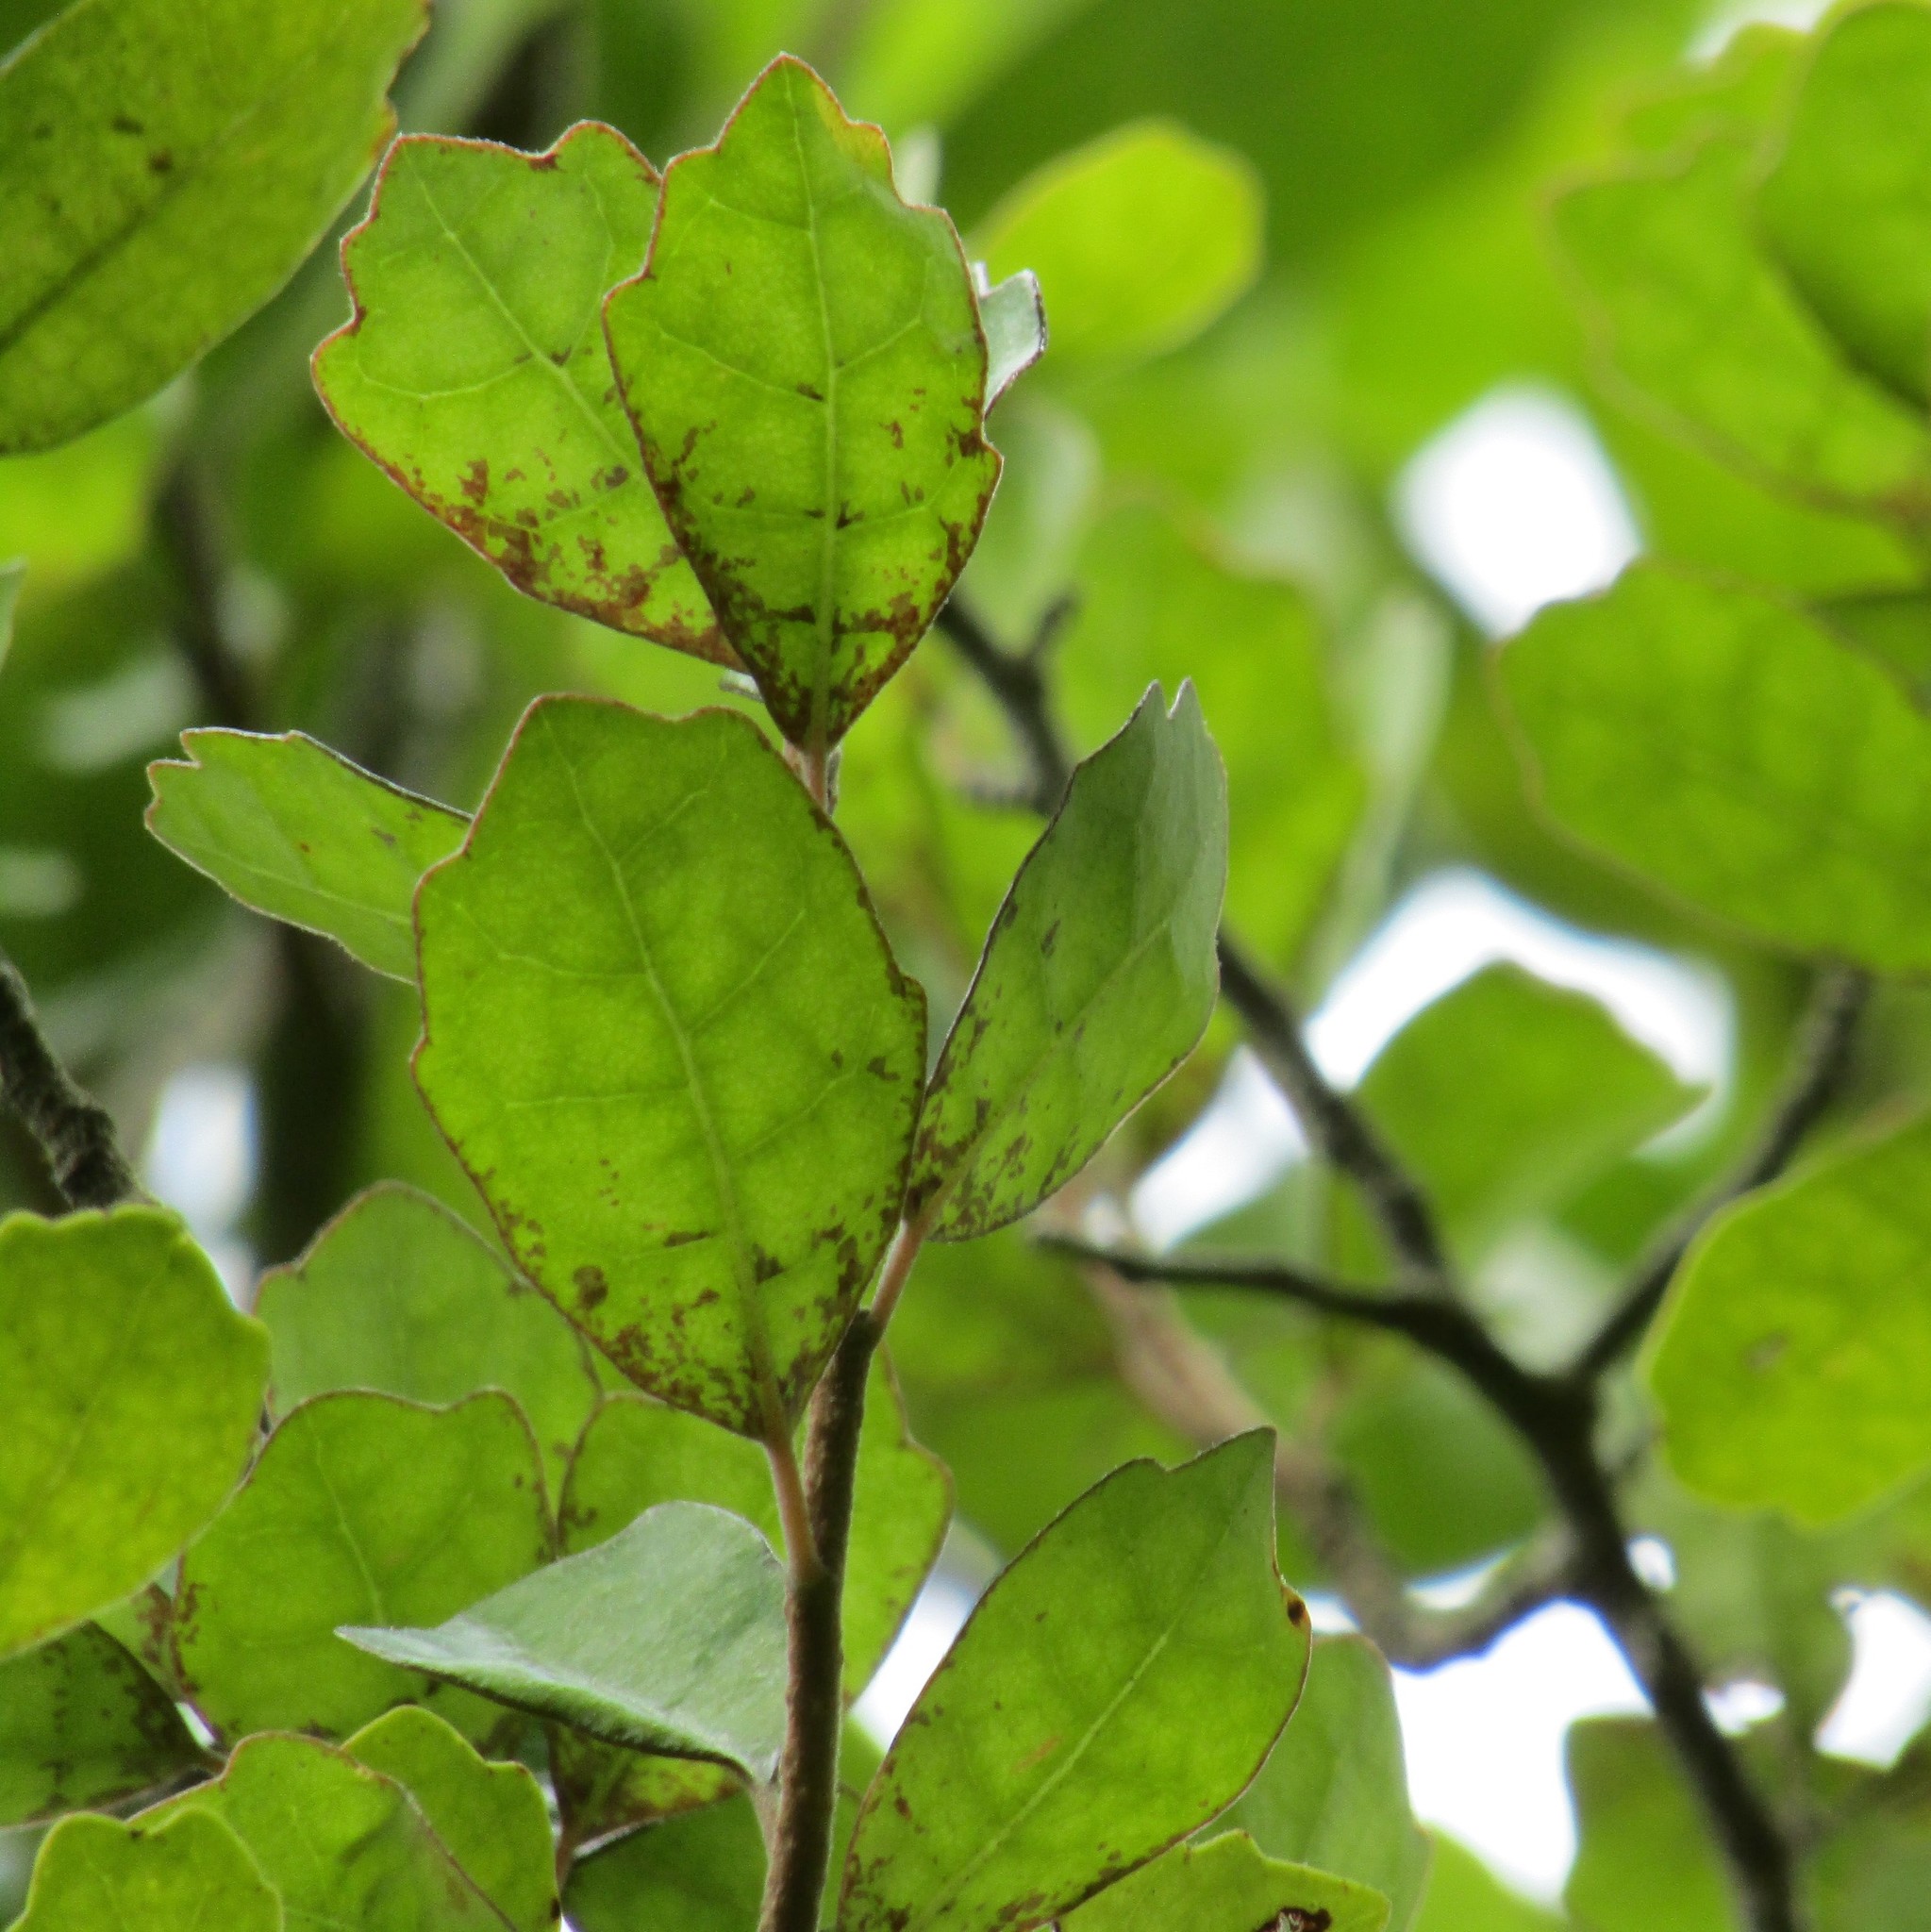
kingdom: Plantae
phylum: Tracheophyta
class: Magnoliopsida
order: Apiales
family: Pennantiaceae
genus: Pennantia
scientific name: Pennantia corymbosa
